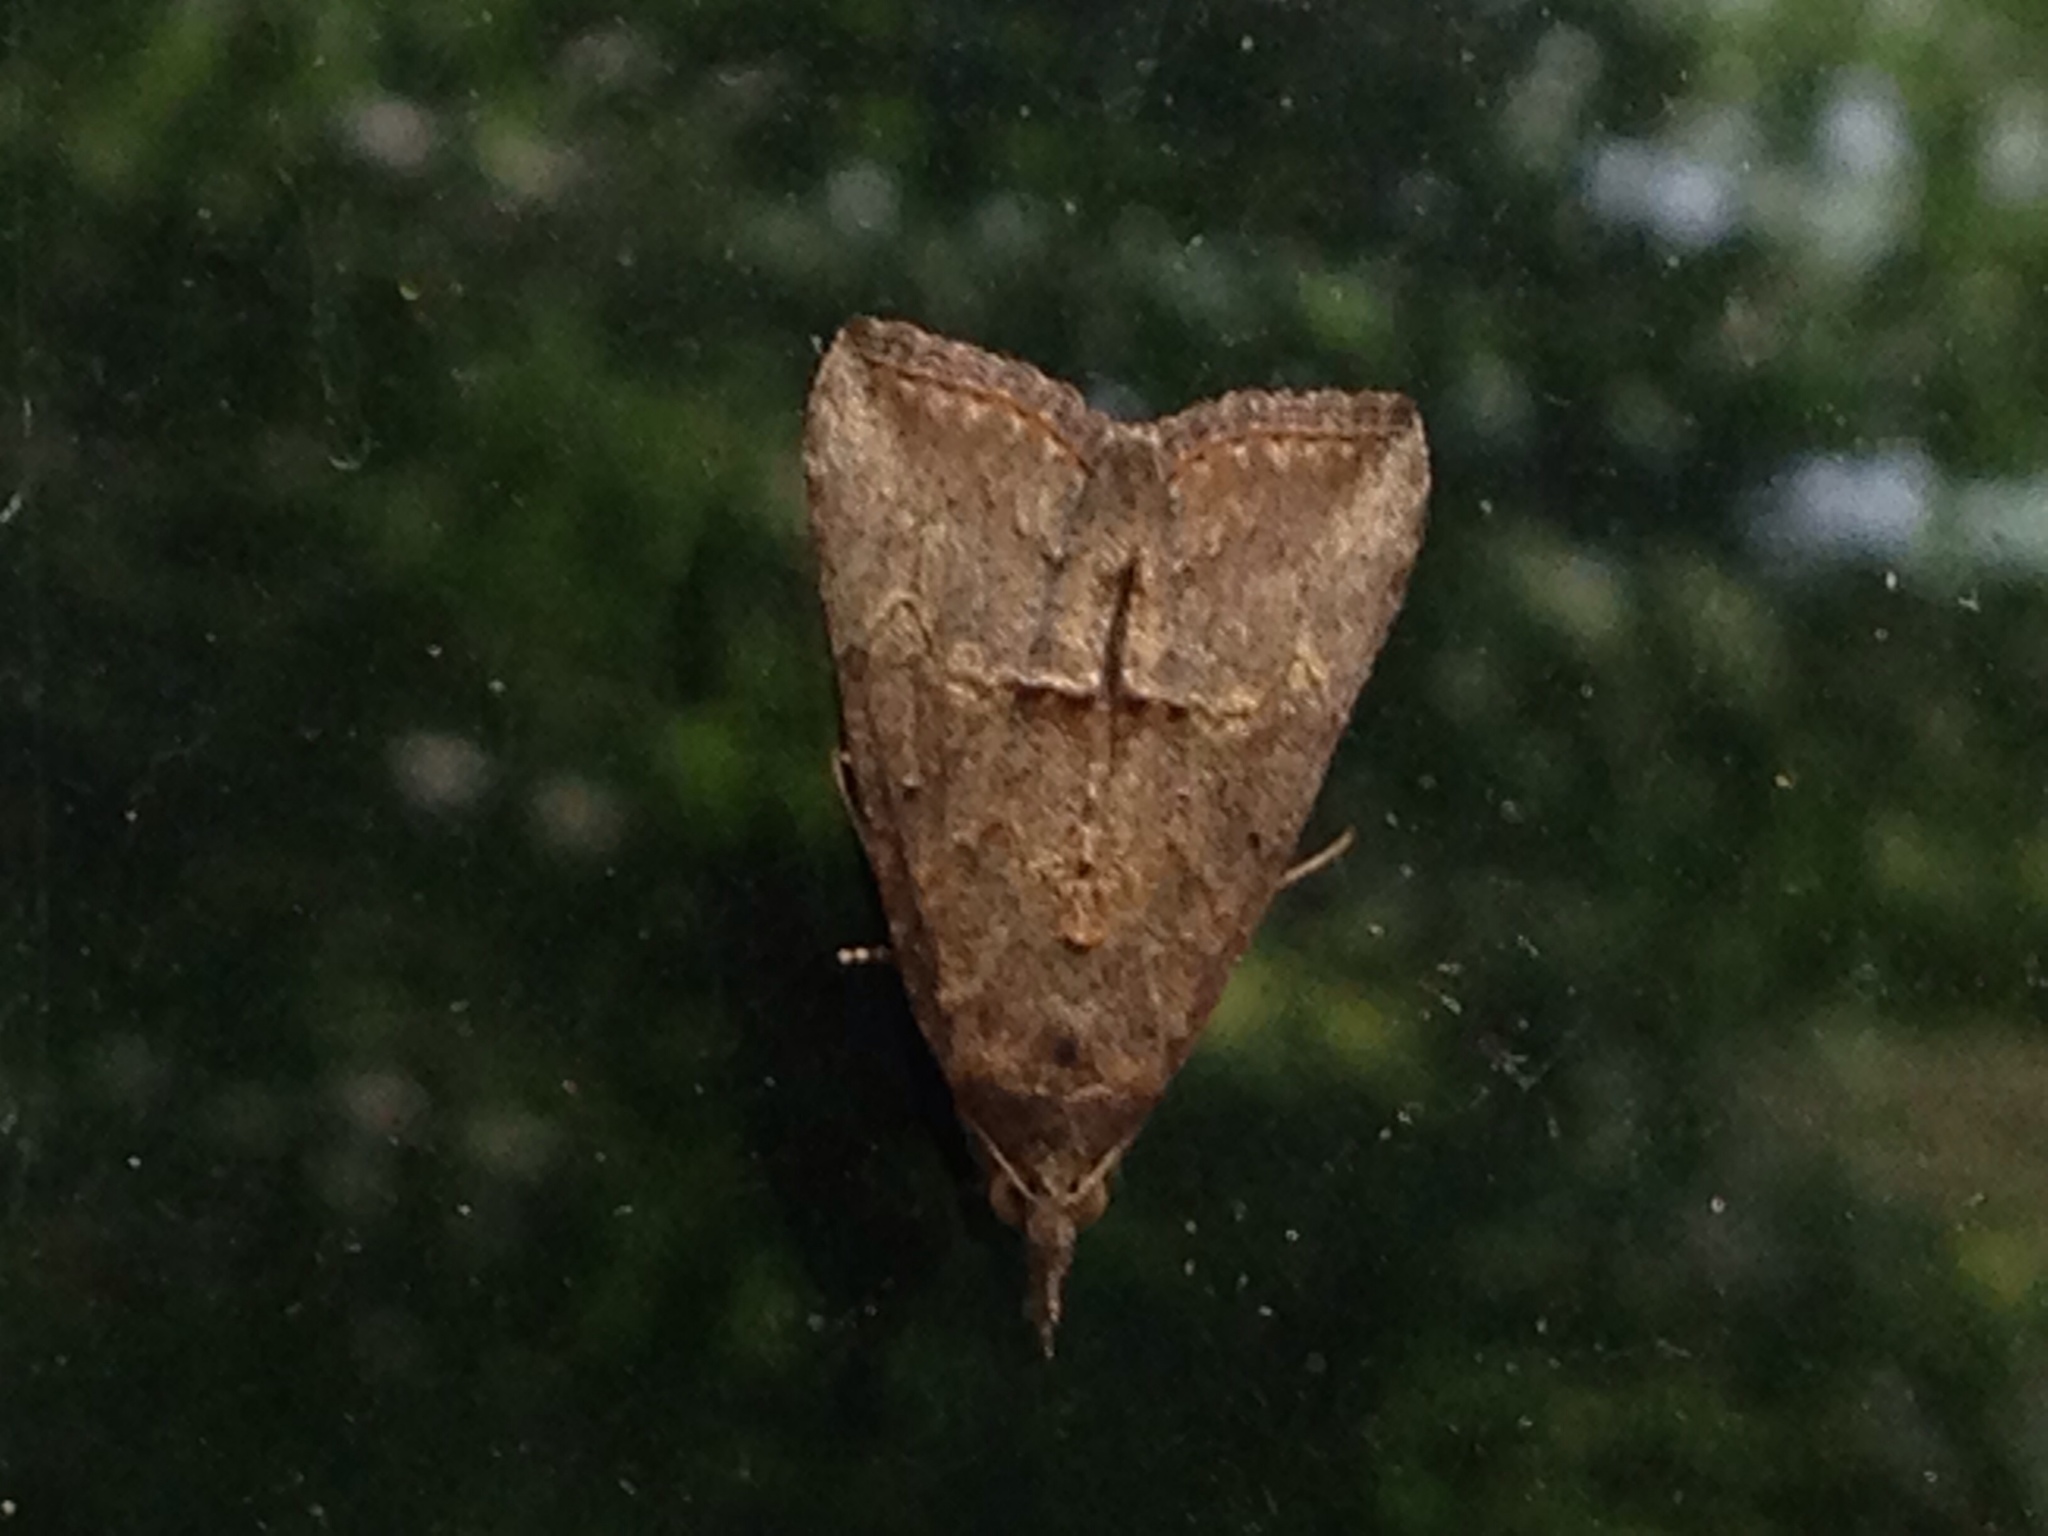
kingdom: Animalia
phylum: Arthropoda
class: Insecta
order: Lepidoptera
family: Erebidae
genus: Hypena
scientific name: Hypena scabra
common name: Green cloverworm
